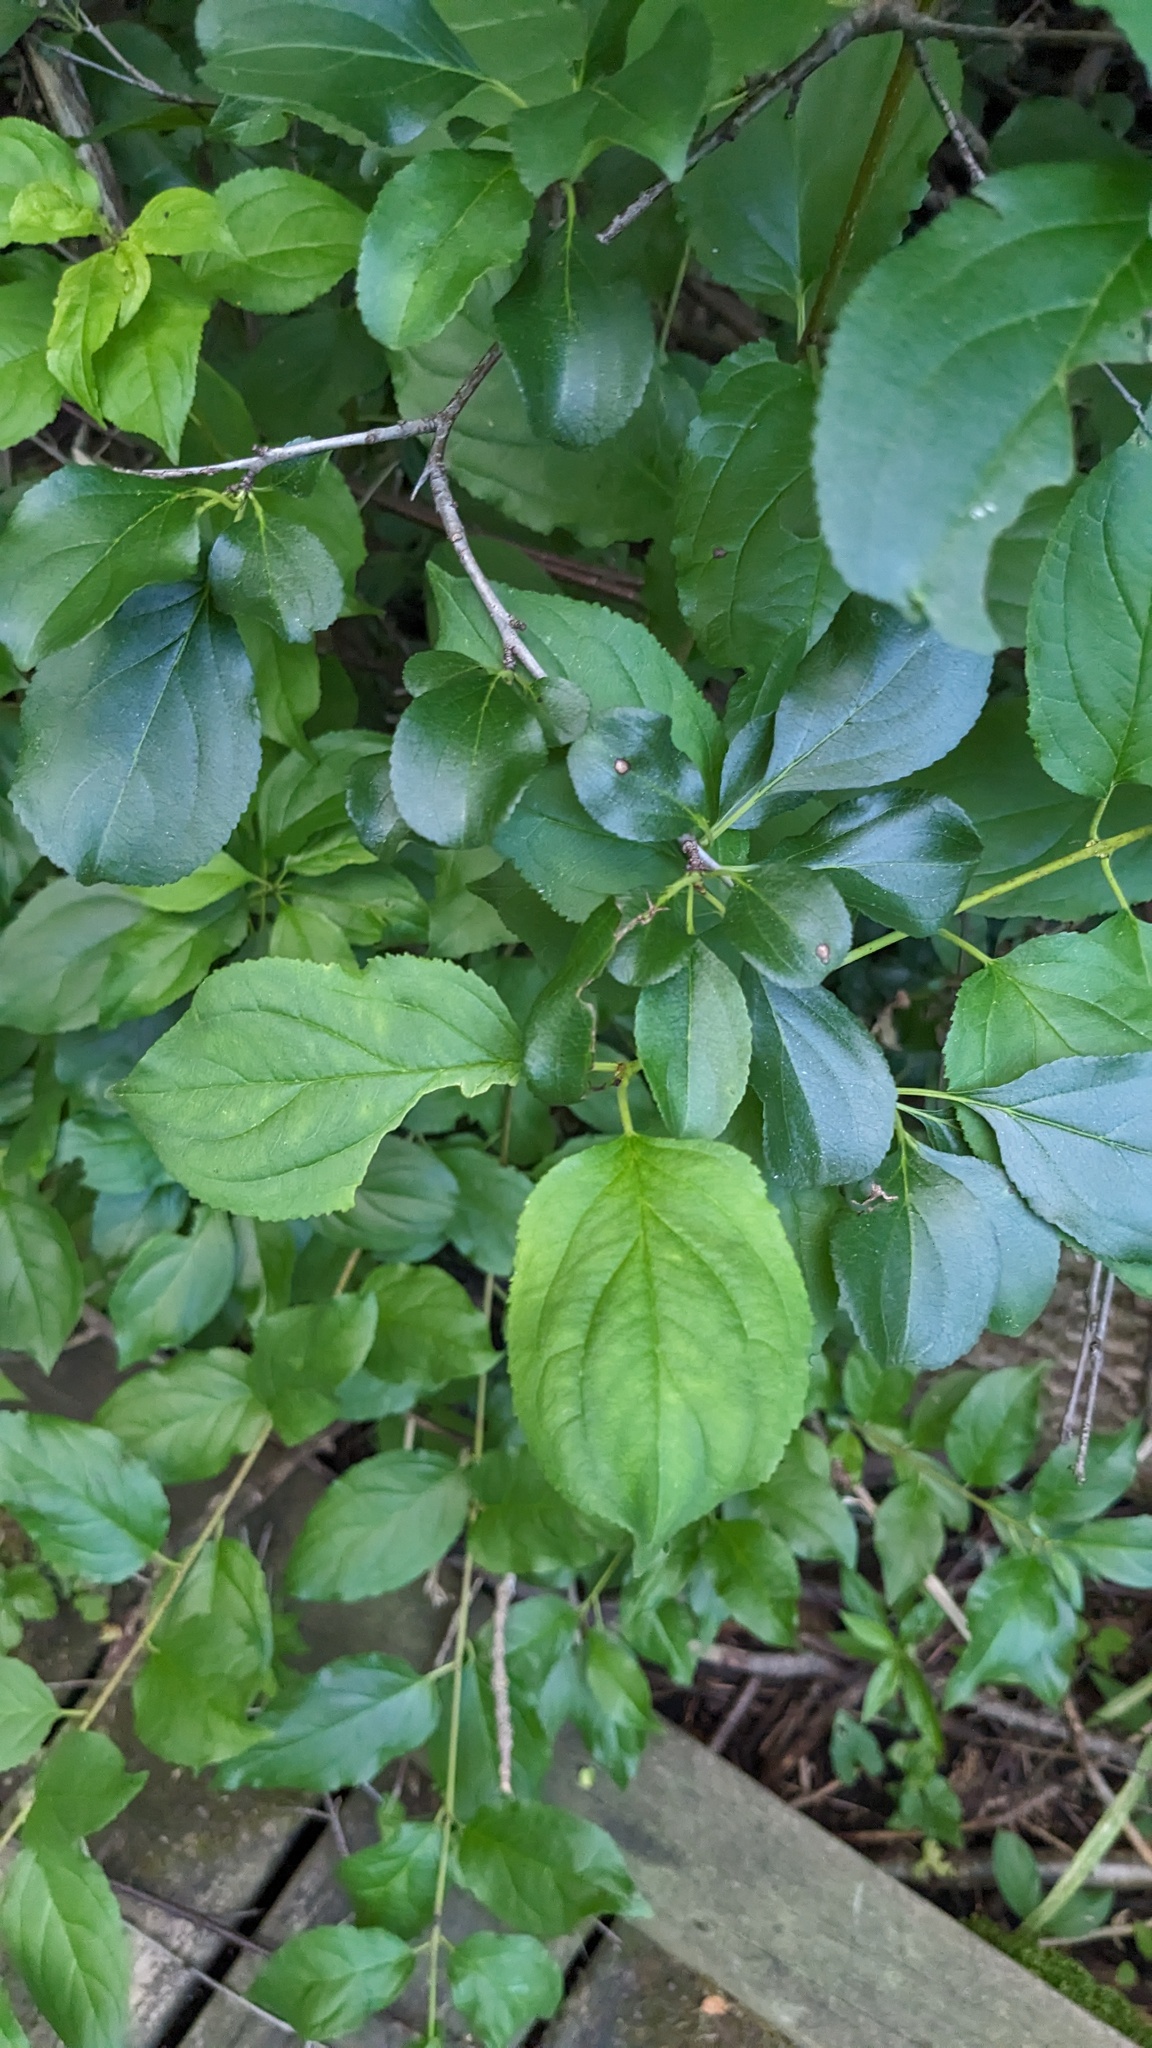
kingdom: Plantae
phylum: Tracheophyta
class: Magnoliopsida
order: Rosales
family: Rhamnaceae
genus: Rhamnus
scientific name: Rhamnus cathartica
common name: Common buckthorn
